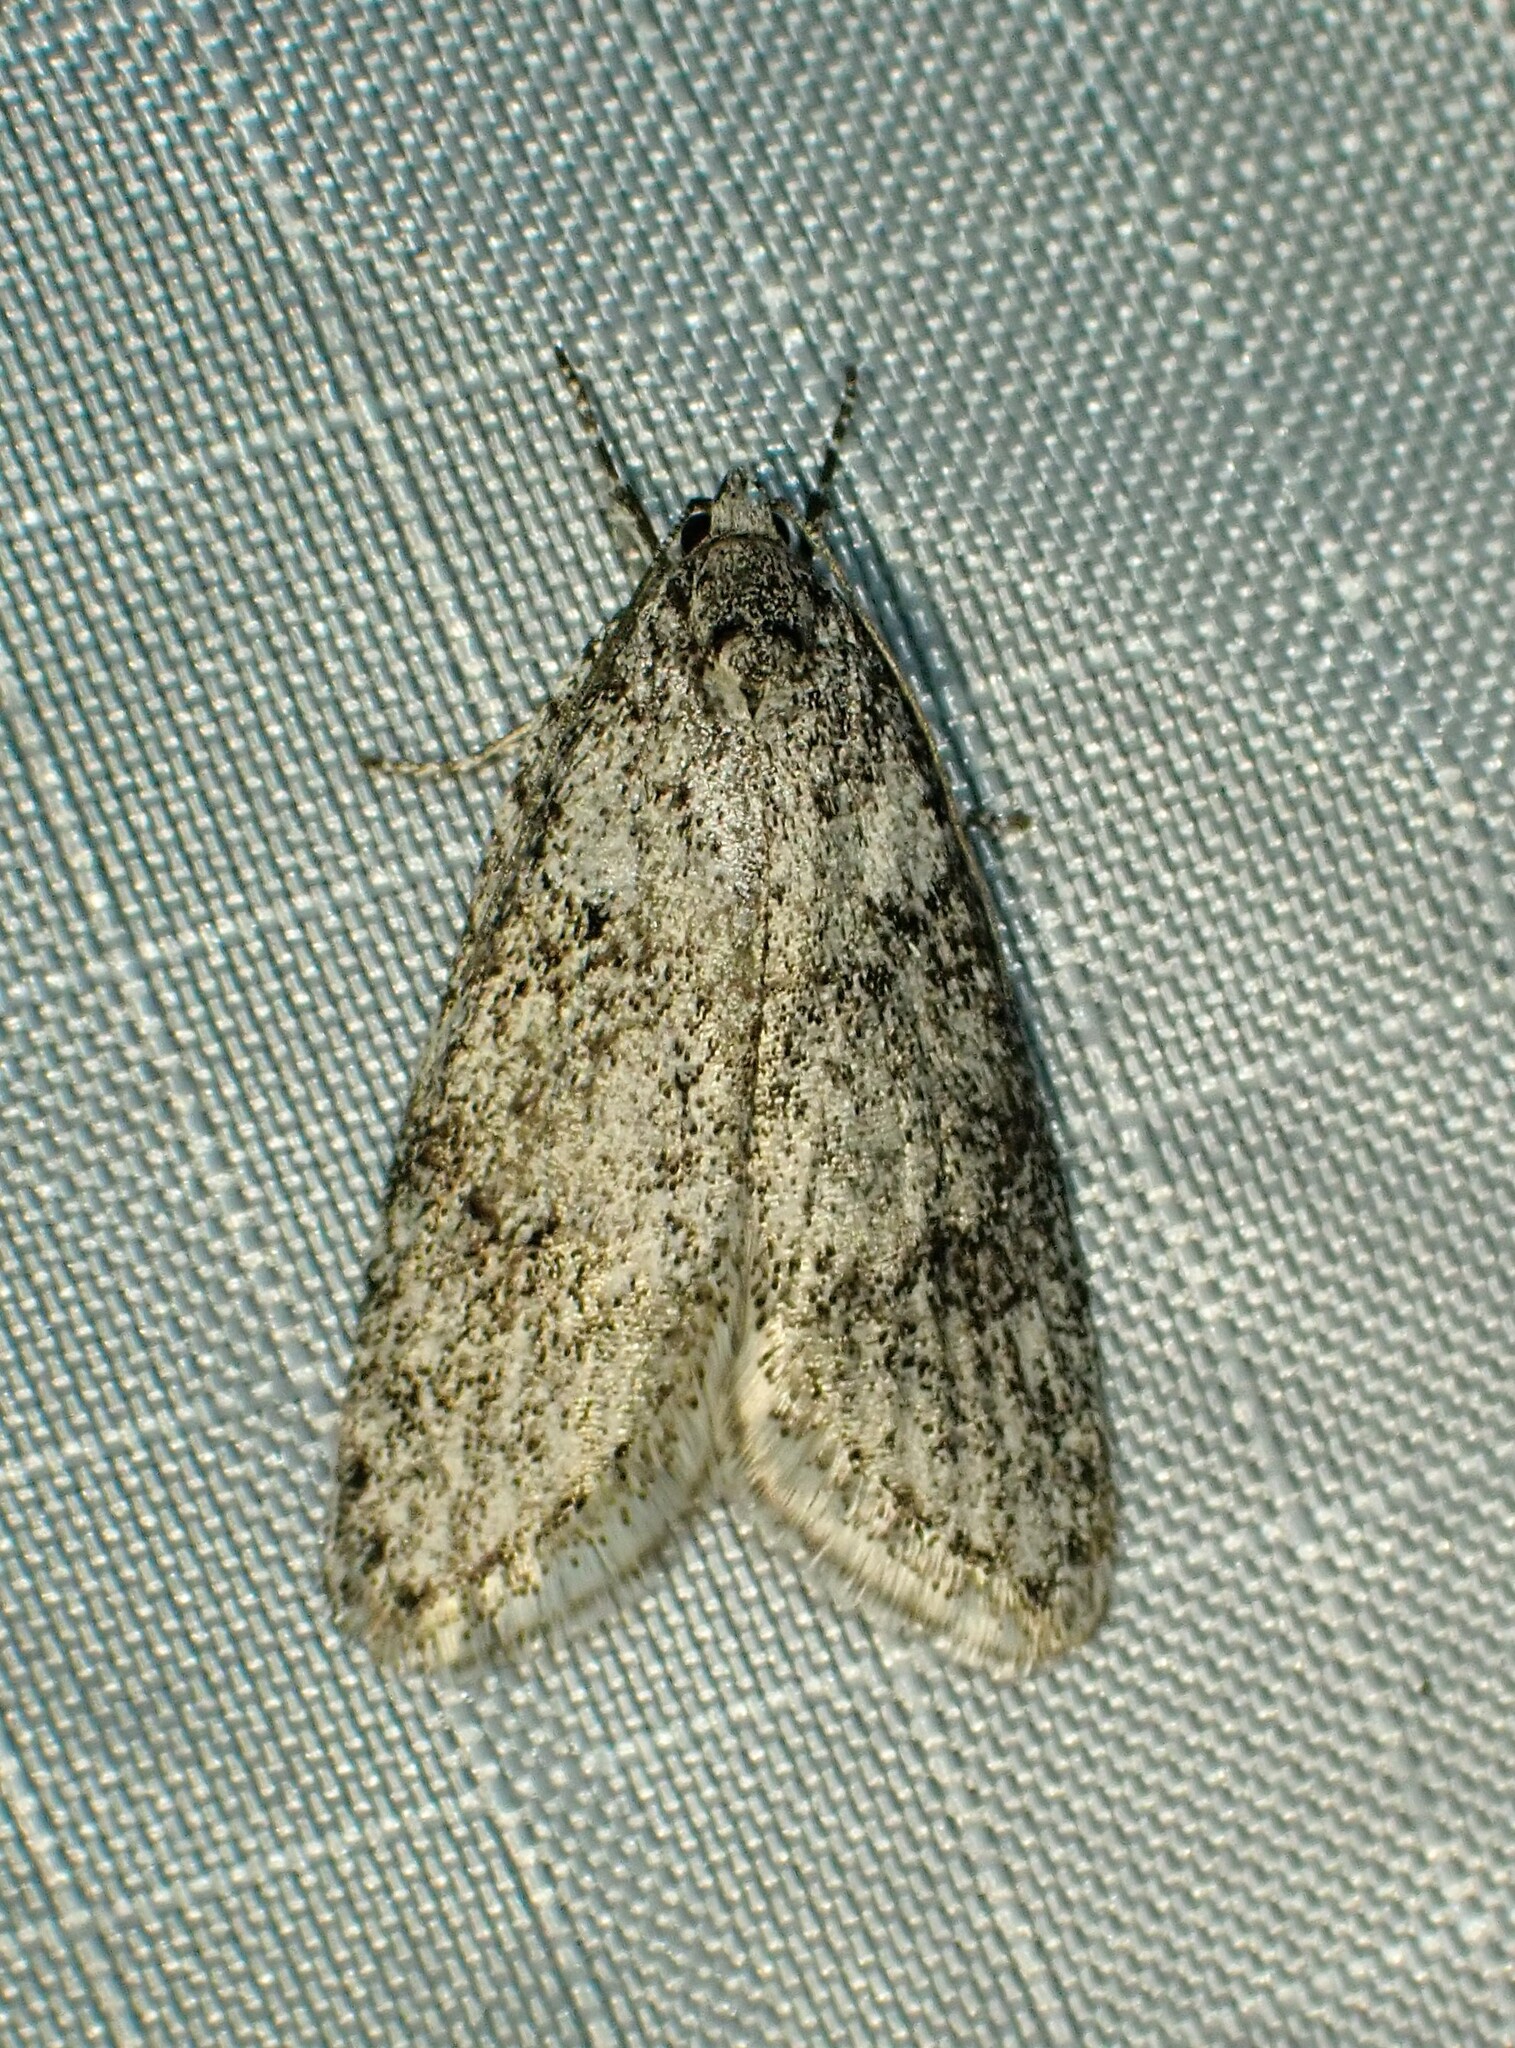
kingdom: Animalia
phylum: Arthropoda
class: Insecta
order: Lepidoptera
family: Depressariidae
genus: Semioscopis
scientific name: Semioscopis inornata
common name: Poplar micromoth
